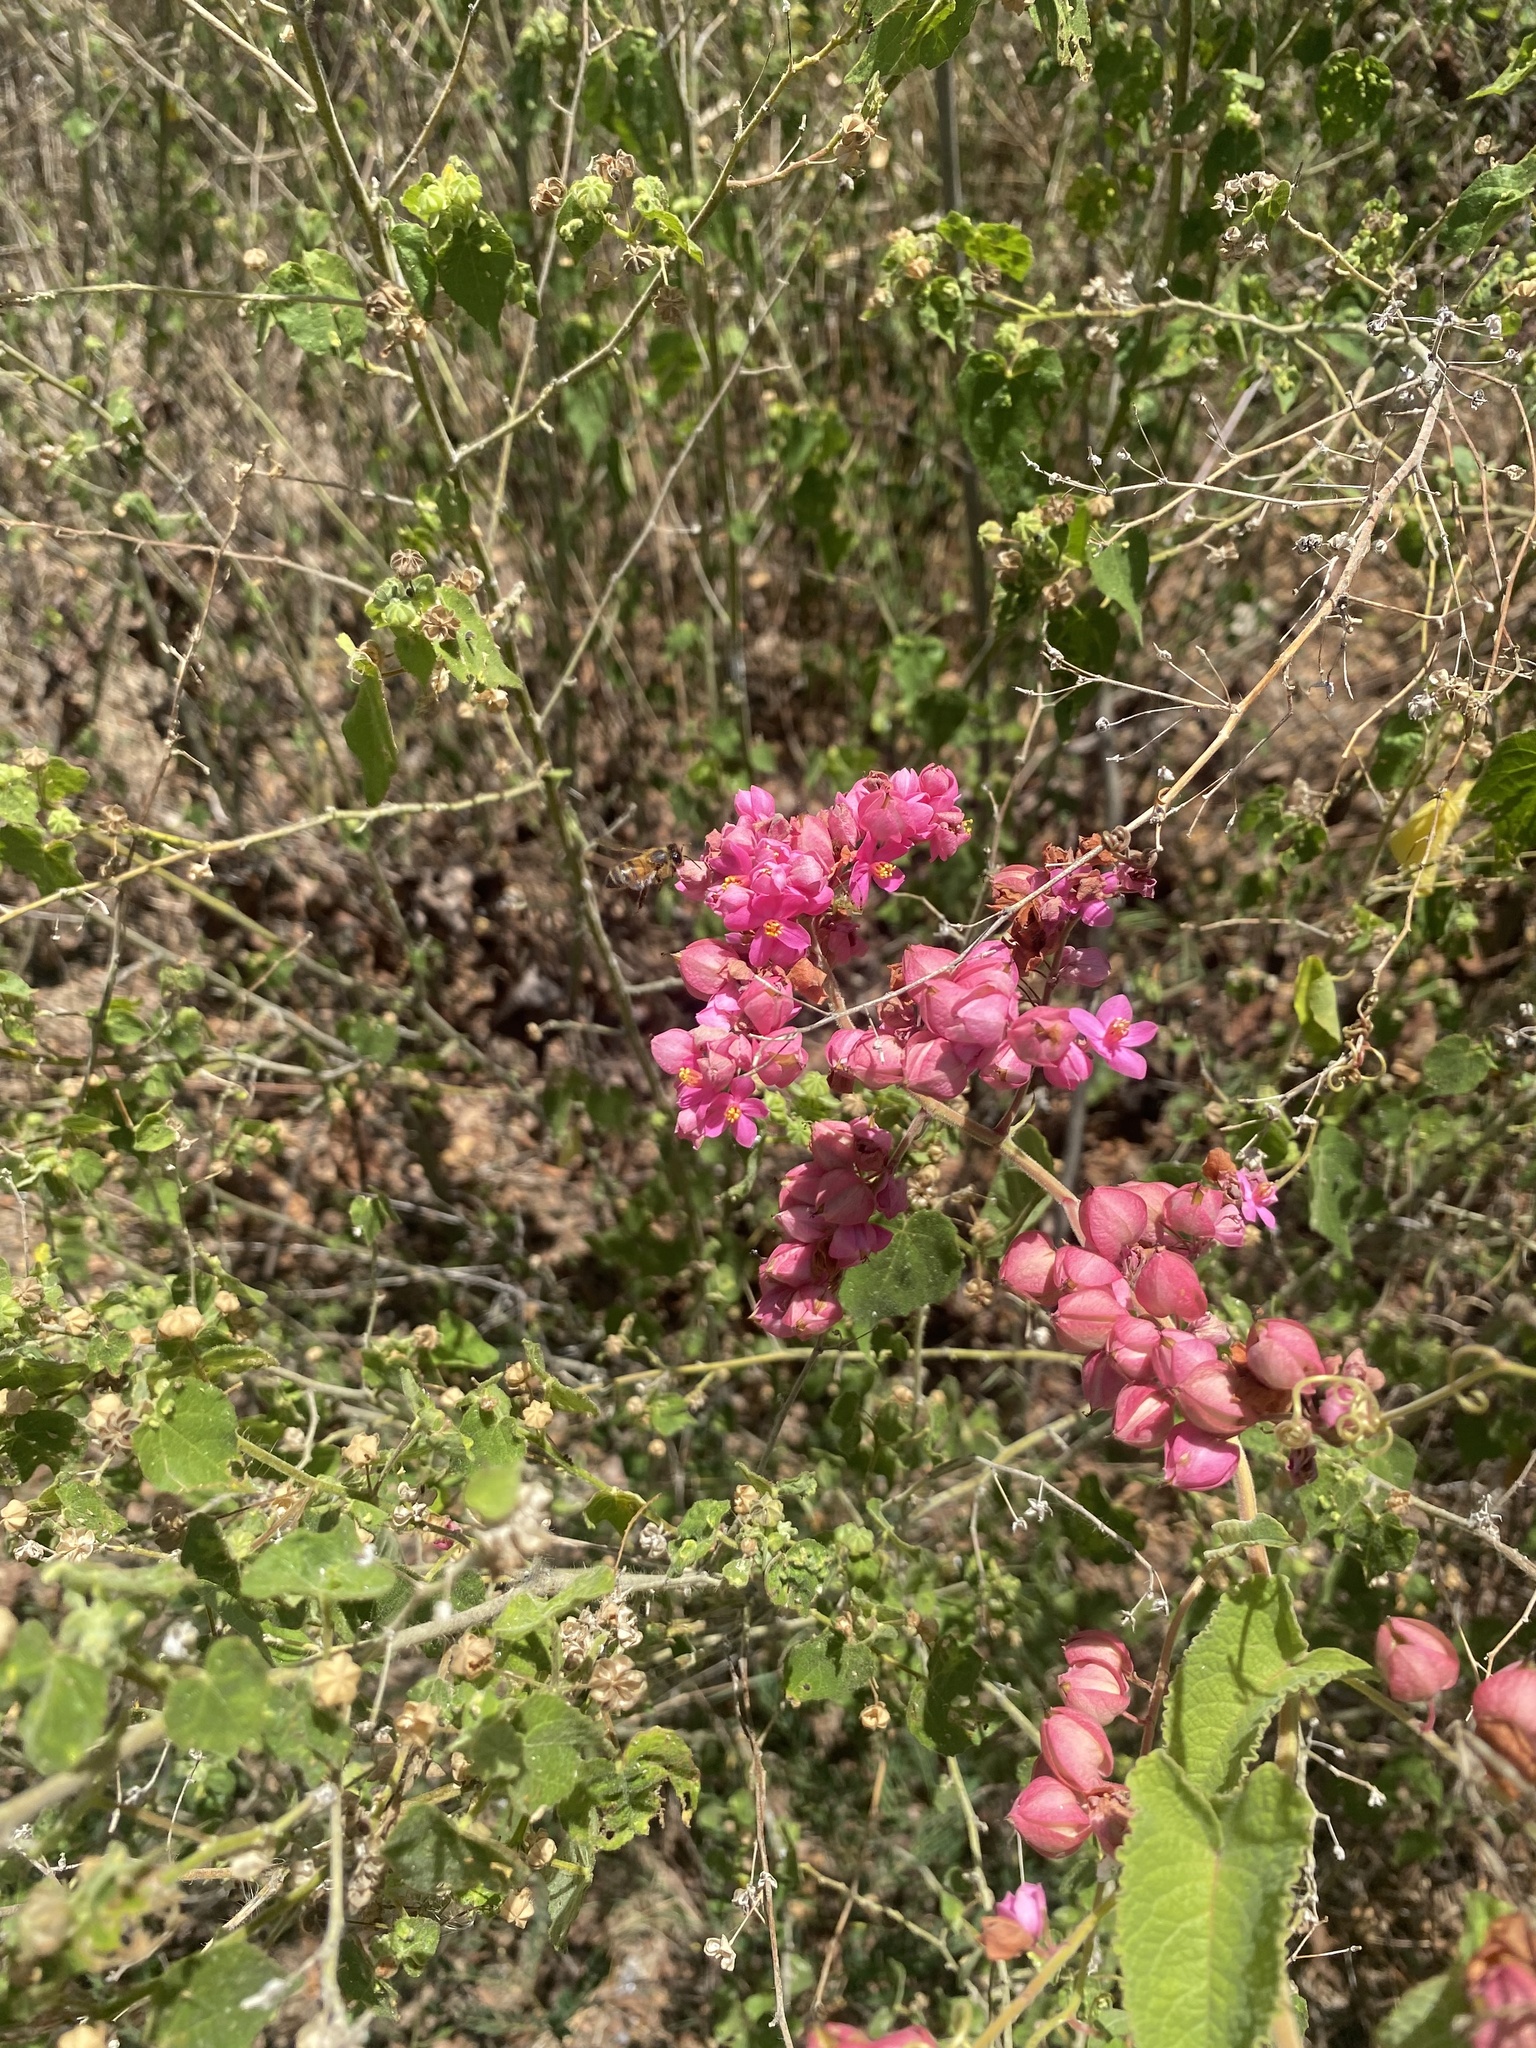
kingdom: Plantae
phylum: Tracheophyta
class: Magnoliopsida
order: Caryophyllales
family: Polygonaceae
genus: Antigonon
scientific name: Antigonon leptopus
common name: Coral vine
